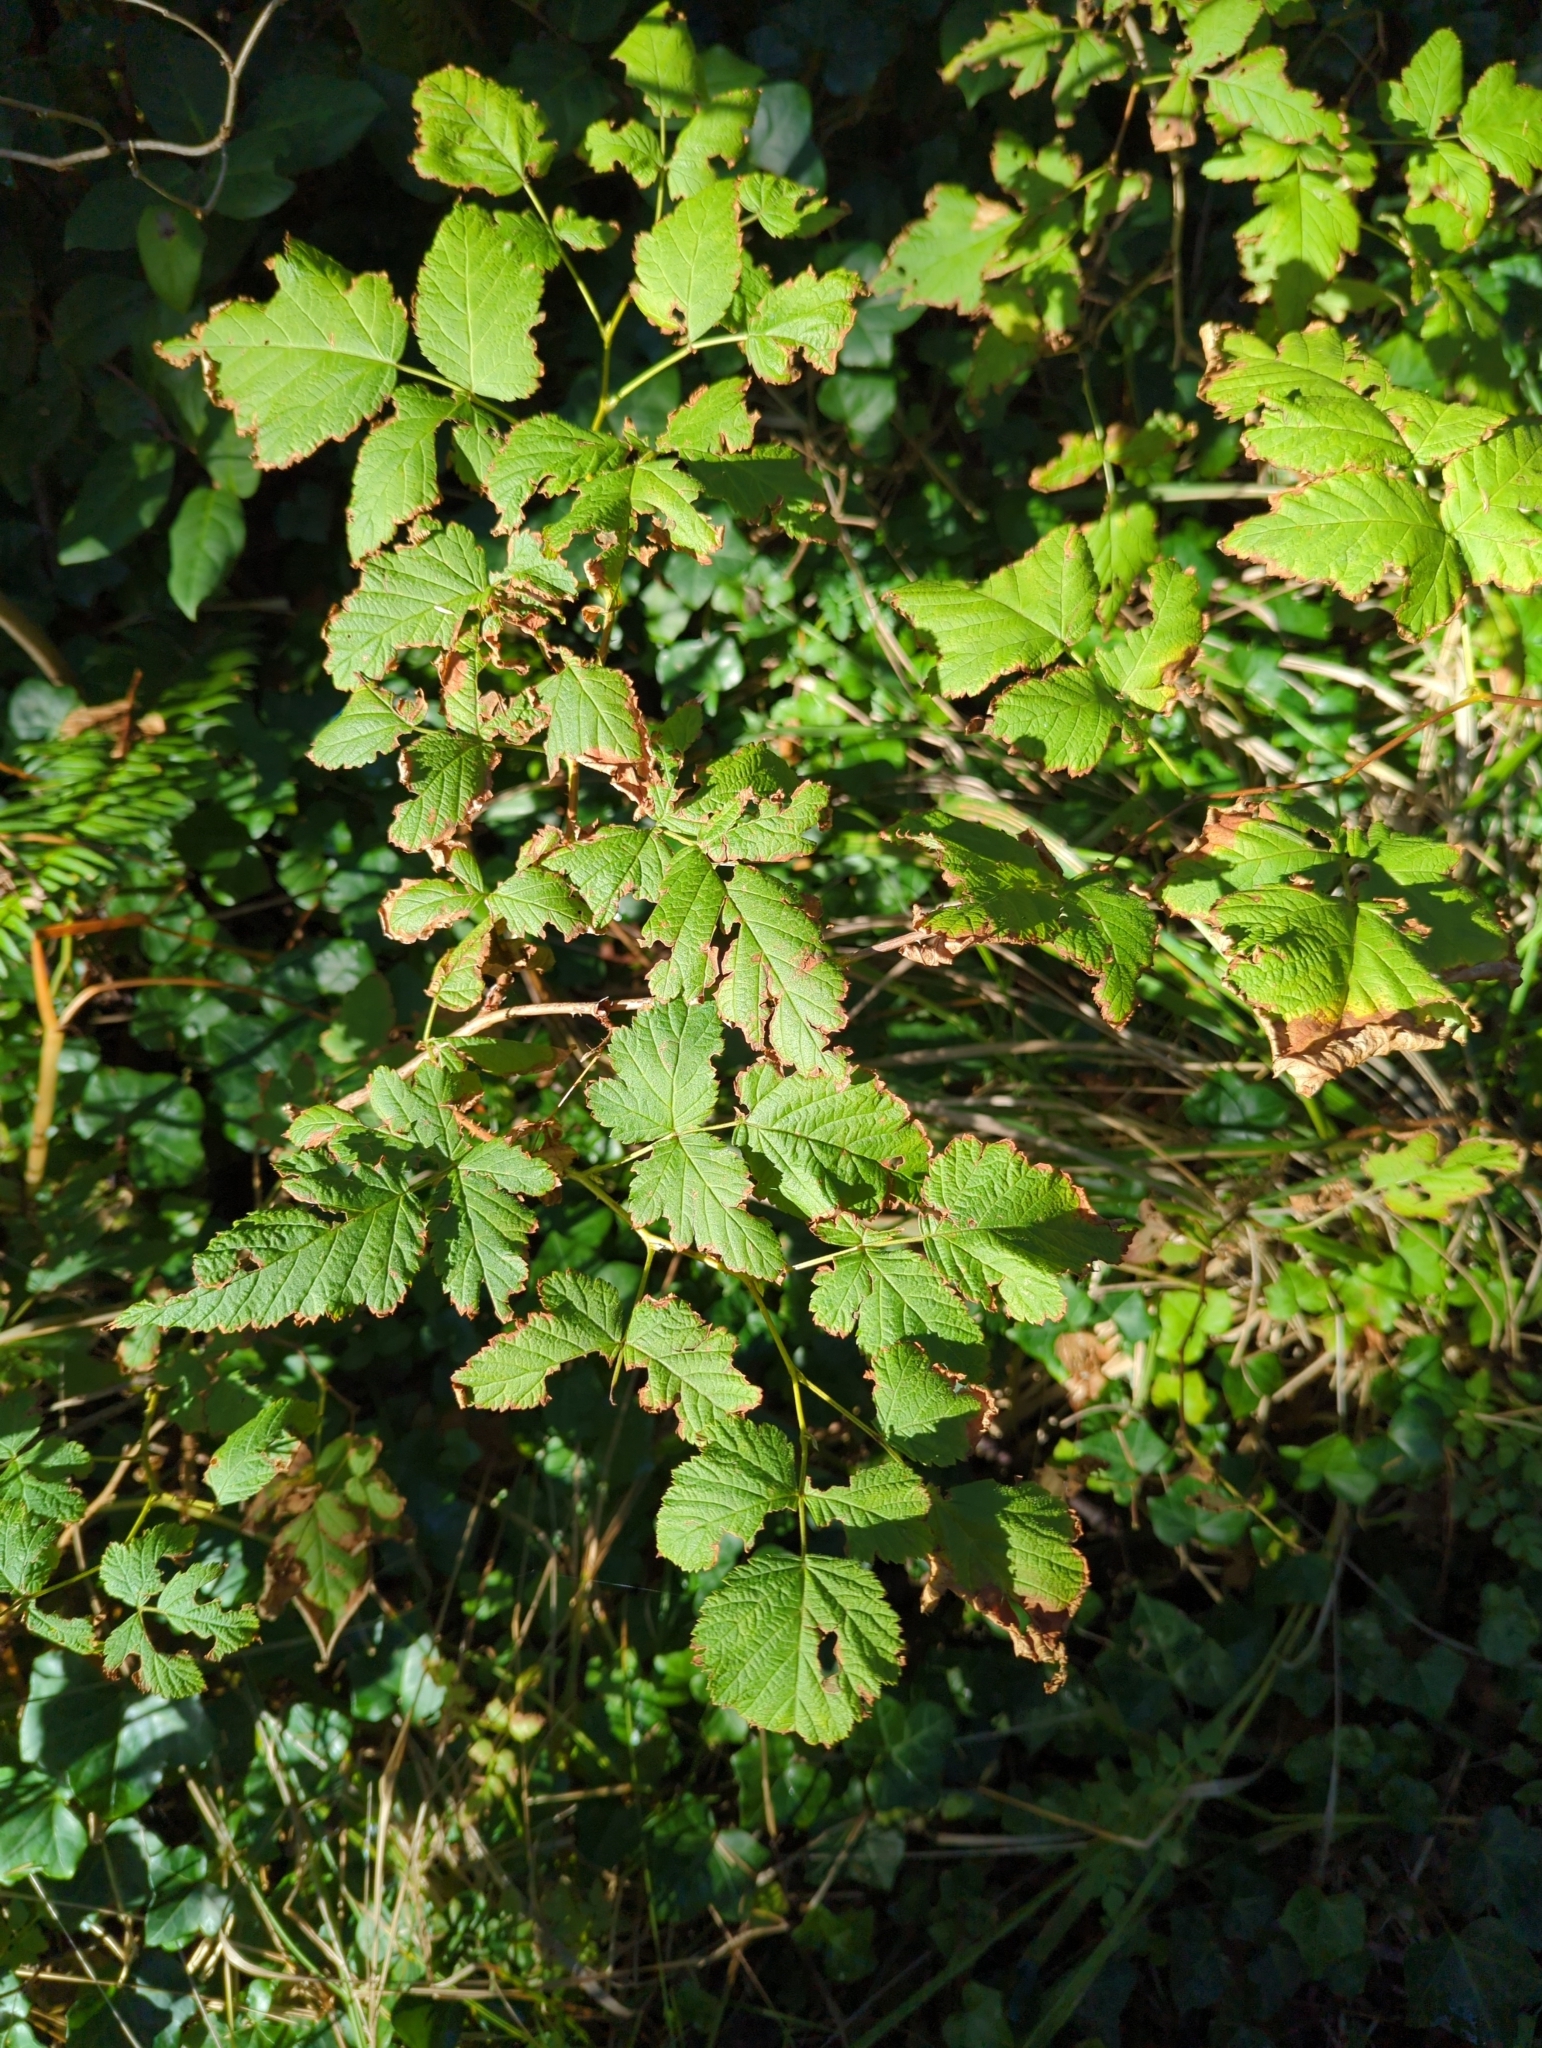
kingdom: Plantae
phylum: Tracheophyta
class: Magnoliopsida
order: Rosales
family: Rosaceae
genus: Rubus
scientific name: Rubus spectabilis
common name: Salmonberry
